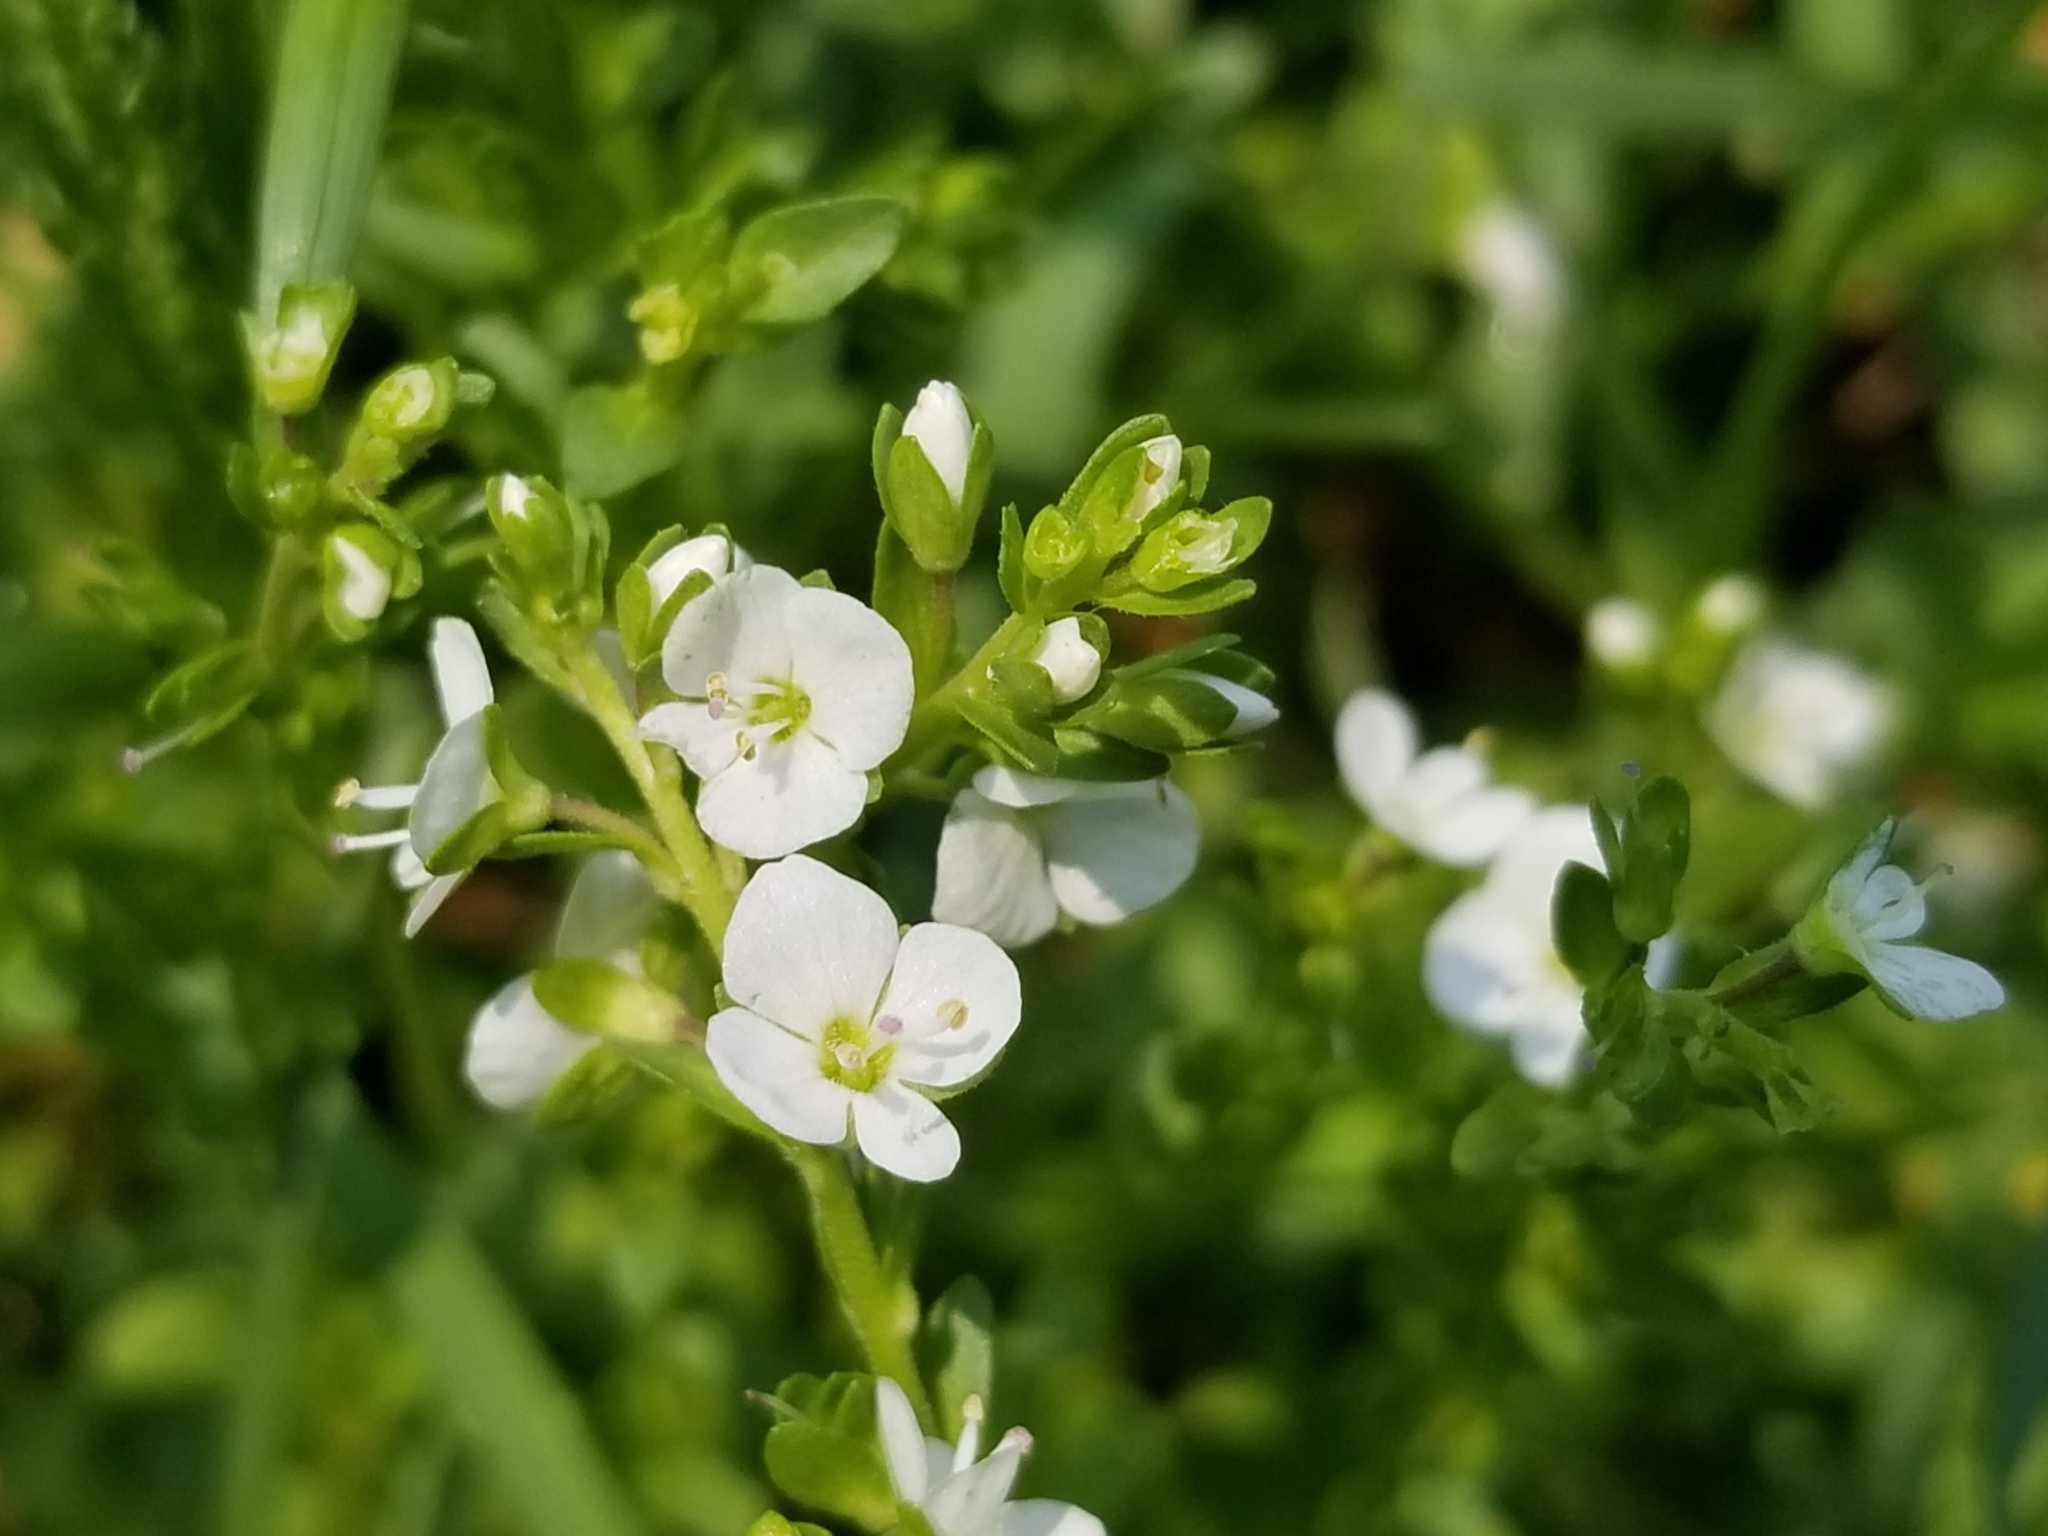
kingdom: Plantae
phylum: Tracheophyta
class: Magnoliopsida
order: Lamiales
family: Plantaginaceae
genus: Veronica
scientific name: Veronica serpyllifolia
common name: Thyme-leaved speedwell
